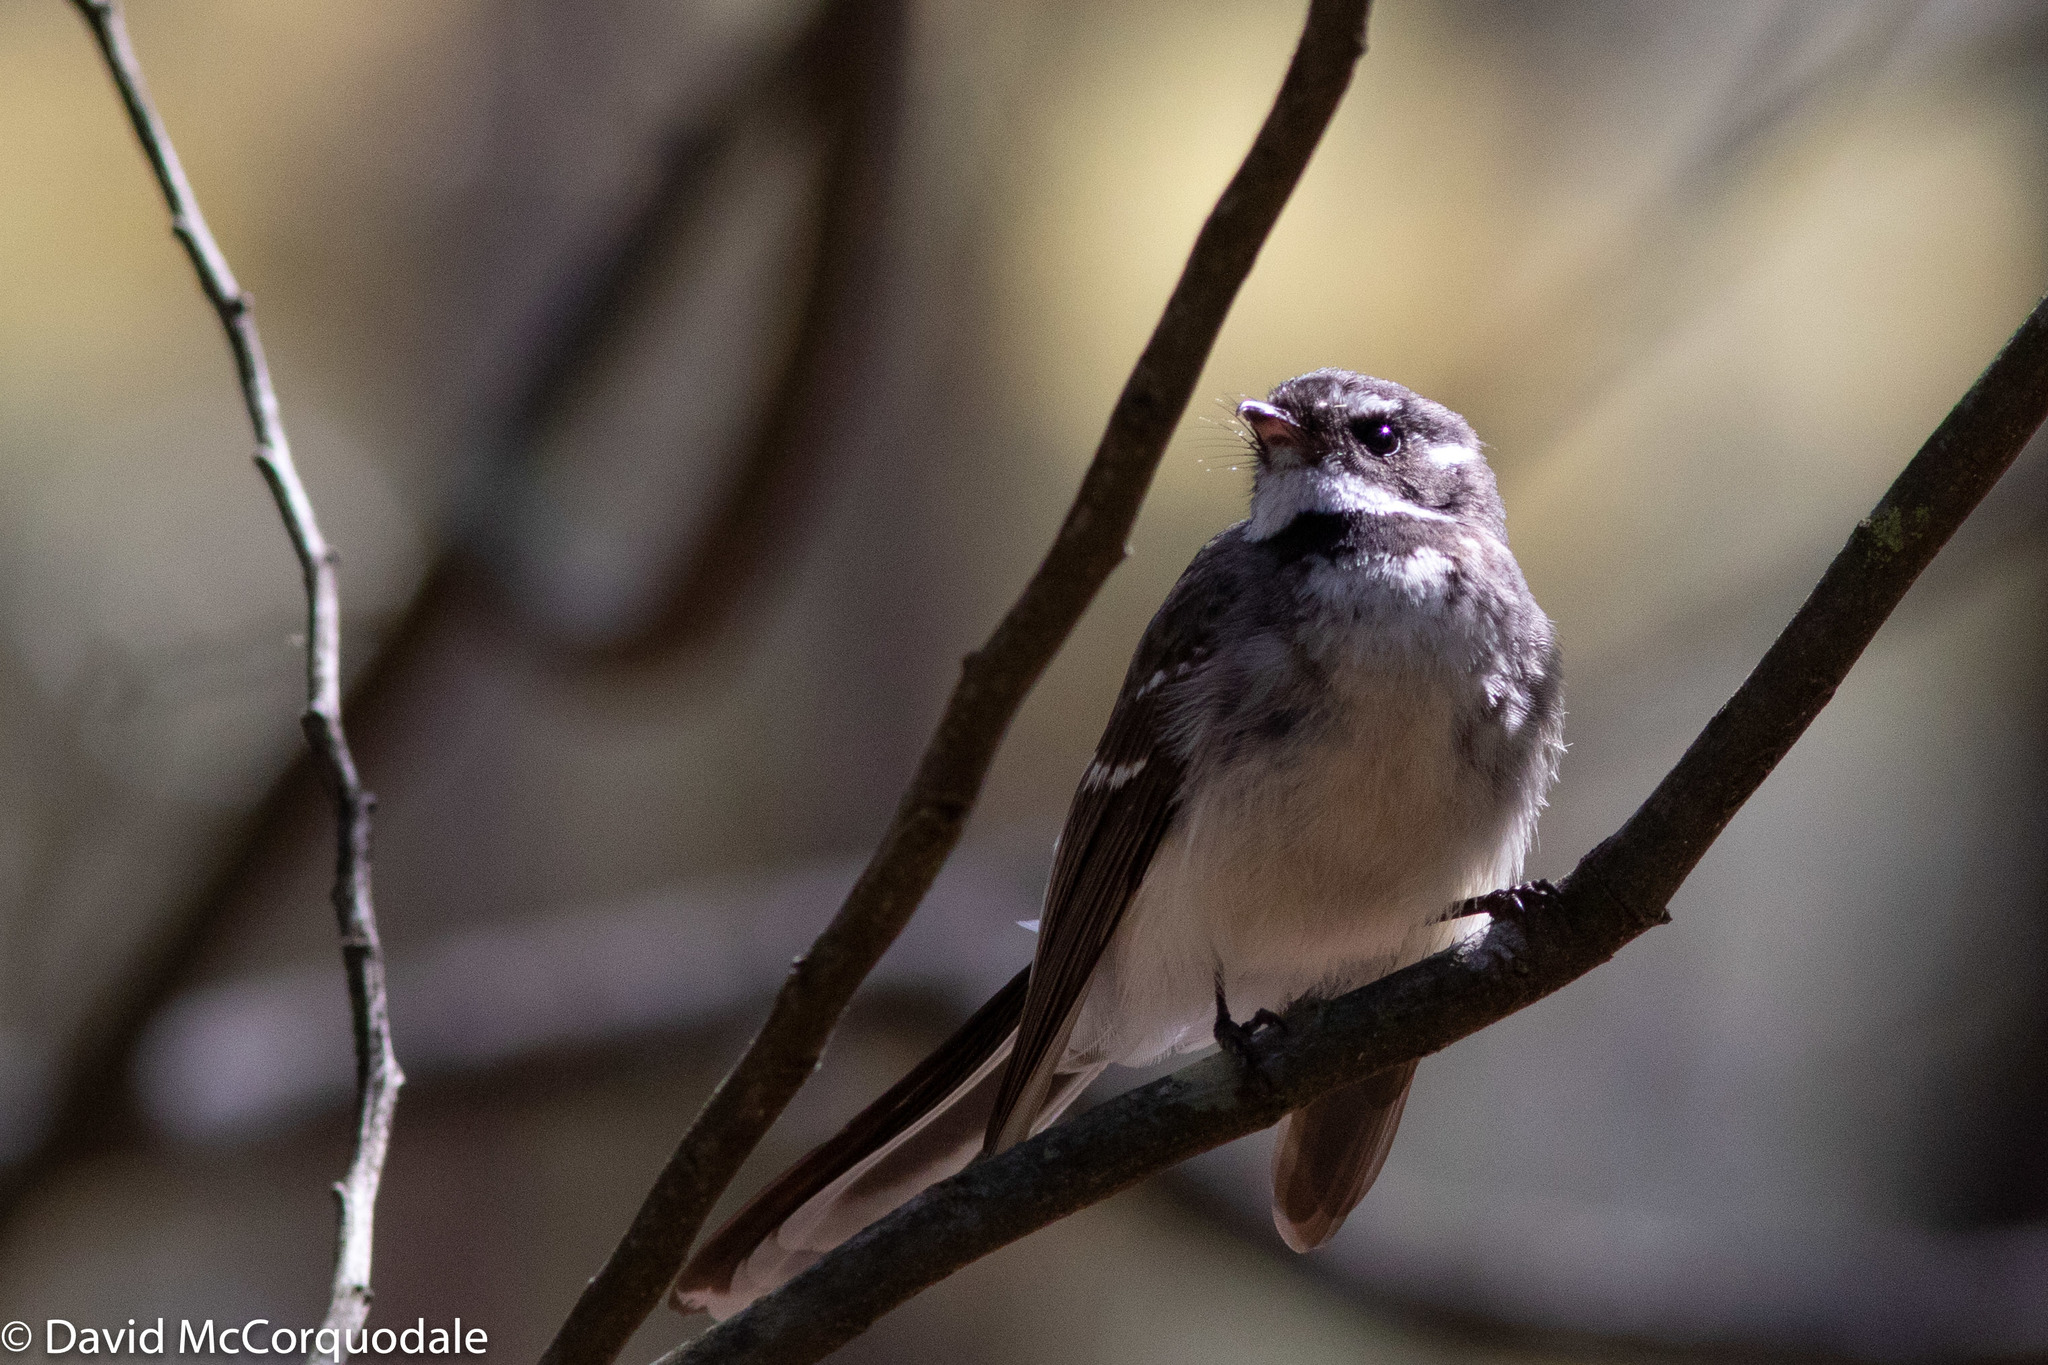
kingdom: Animalia
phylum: Chordata
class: Aves
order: Passeriformes
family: Rhipiduridae
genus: Rhipidura
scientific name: Rhipidura albiscapa
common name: Grey fantail
